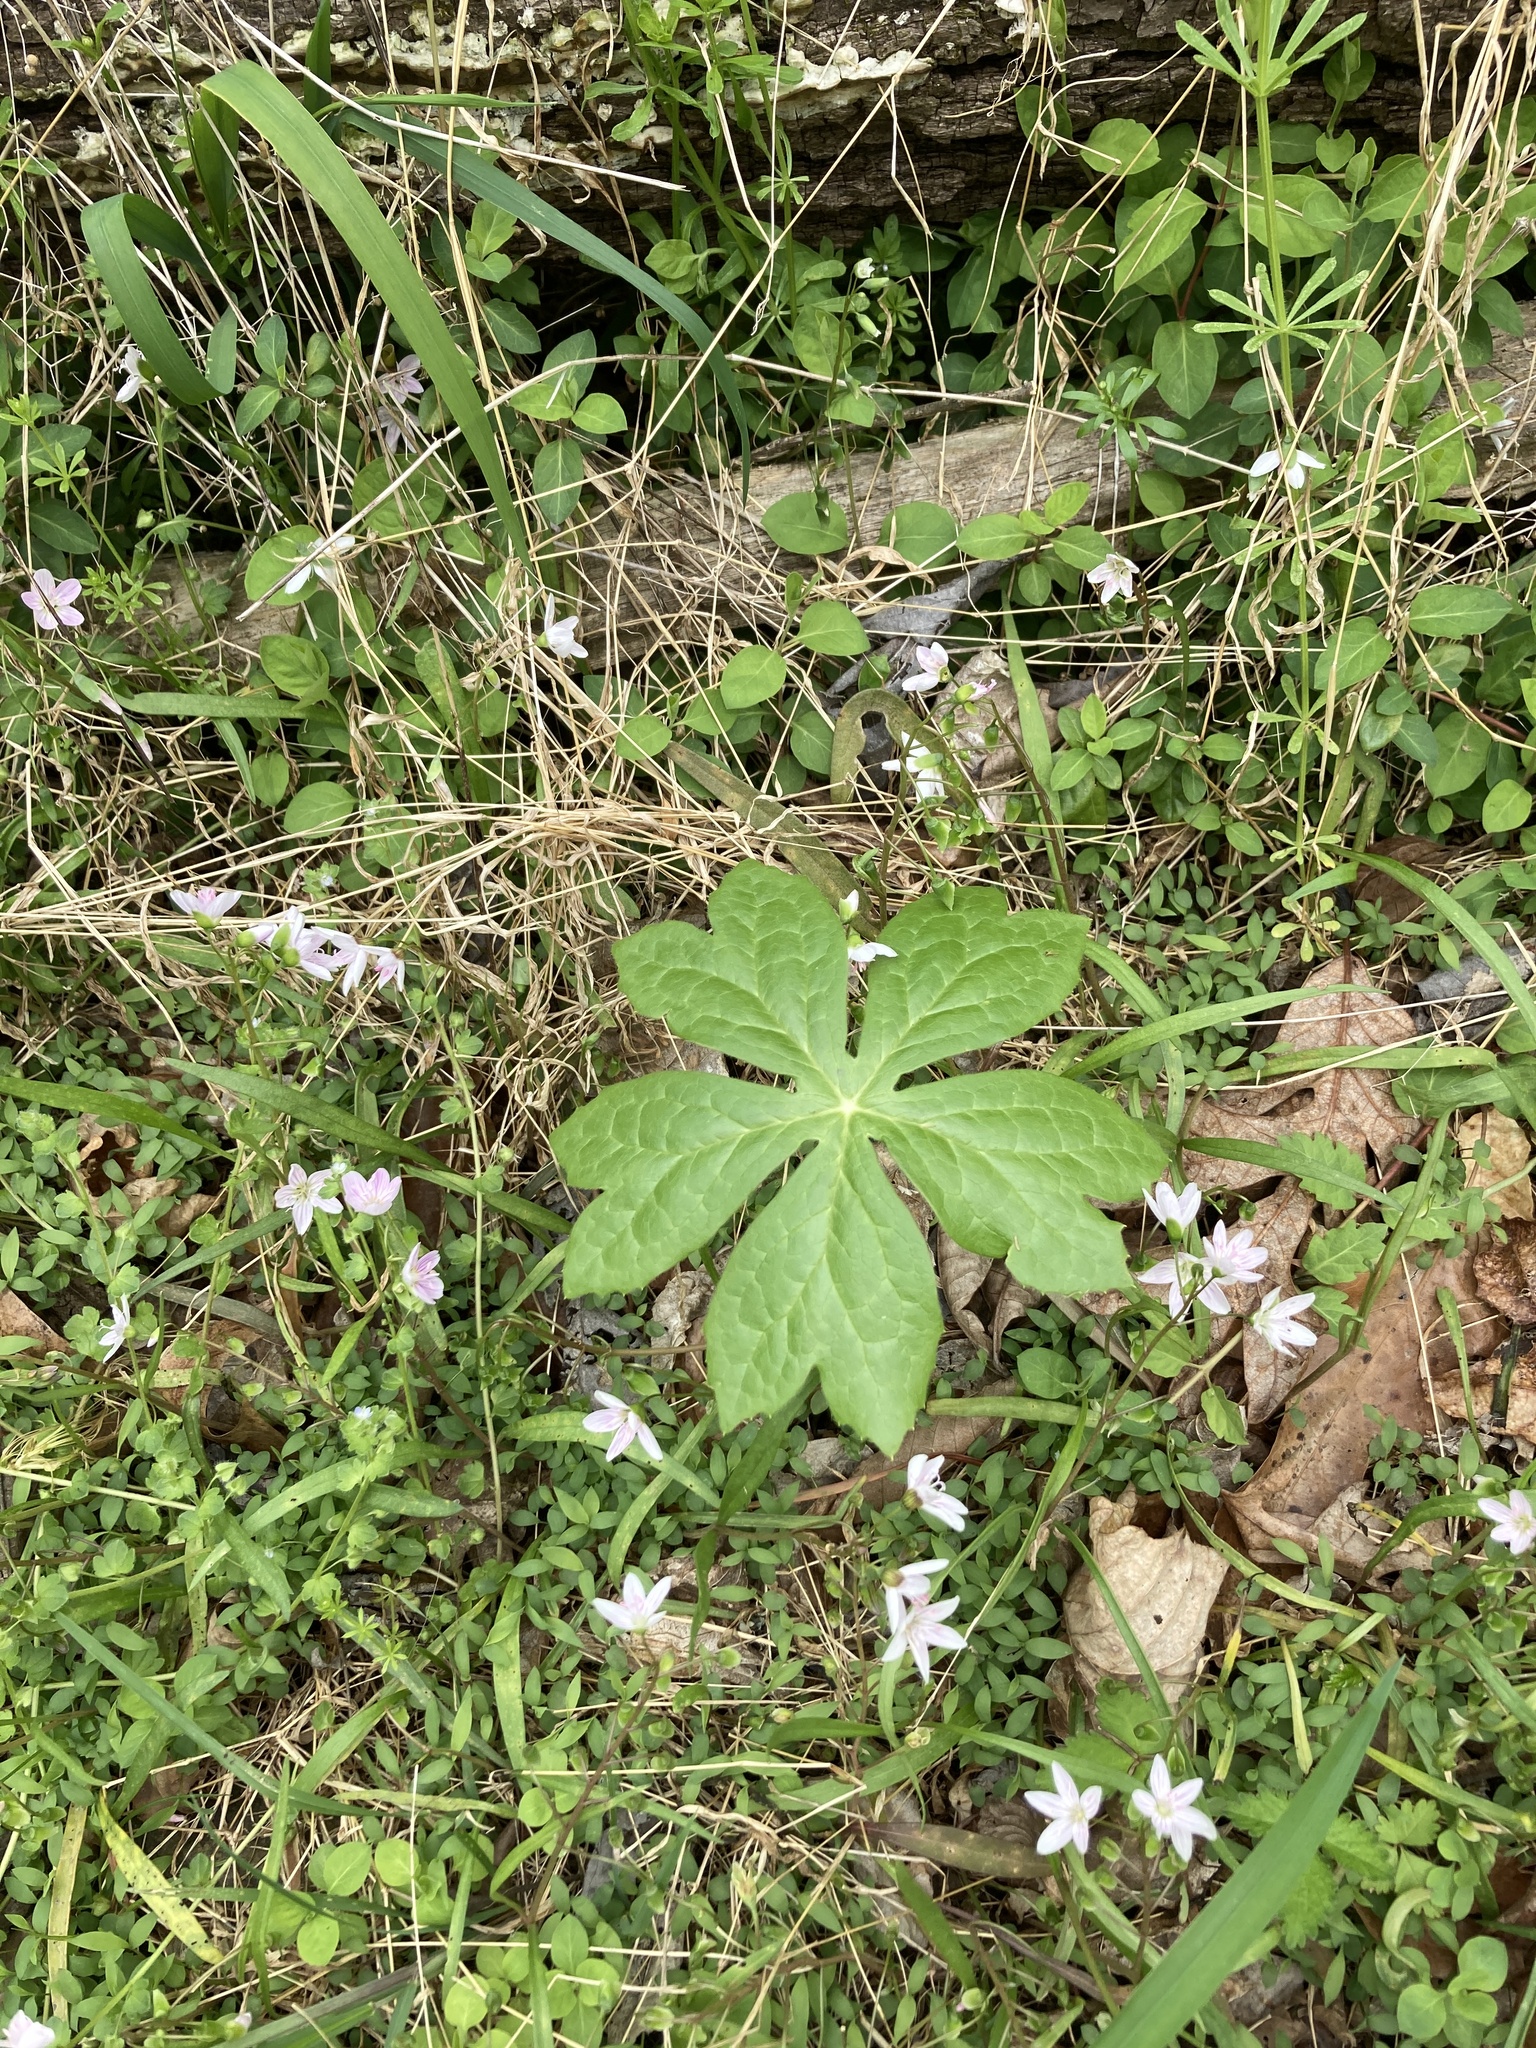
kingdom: Plantae
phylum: Tracheophyta
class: Magnoliopsida
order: Ranunculales
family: Berberidaceae
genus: Podophyllum
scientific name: Podophyllum peltatum
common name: Wild mandrake
